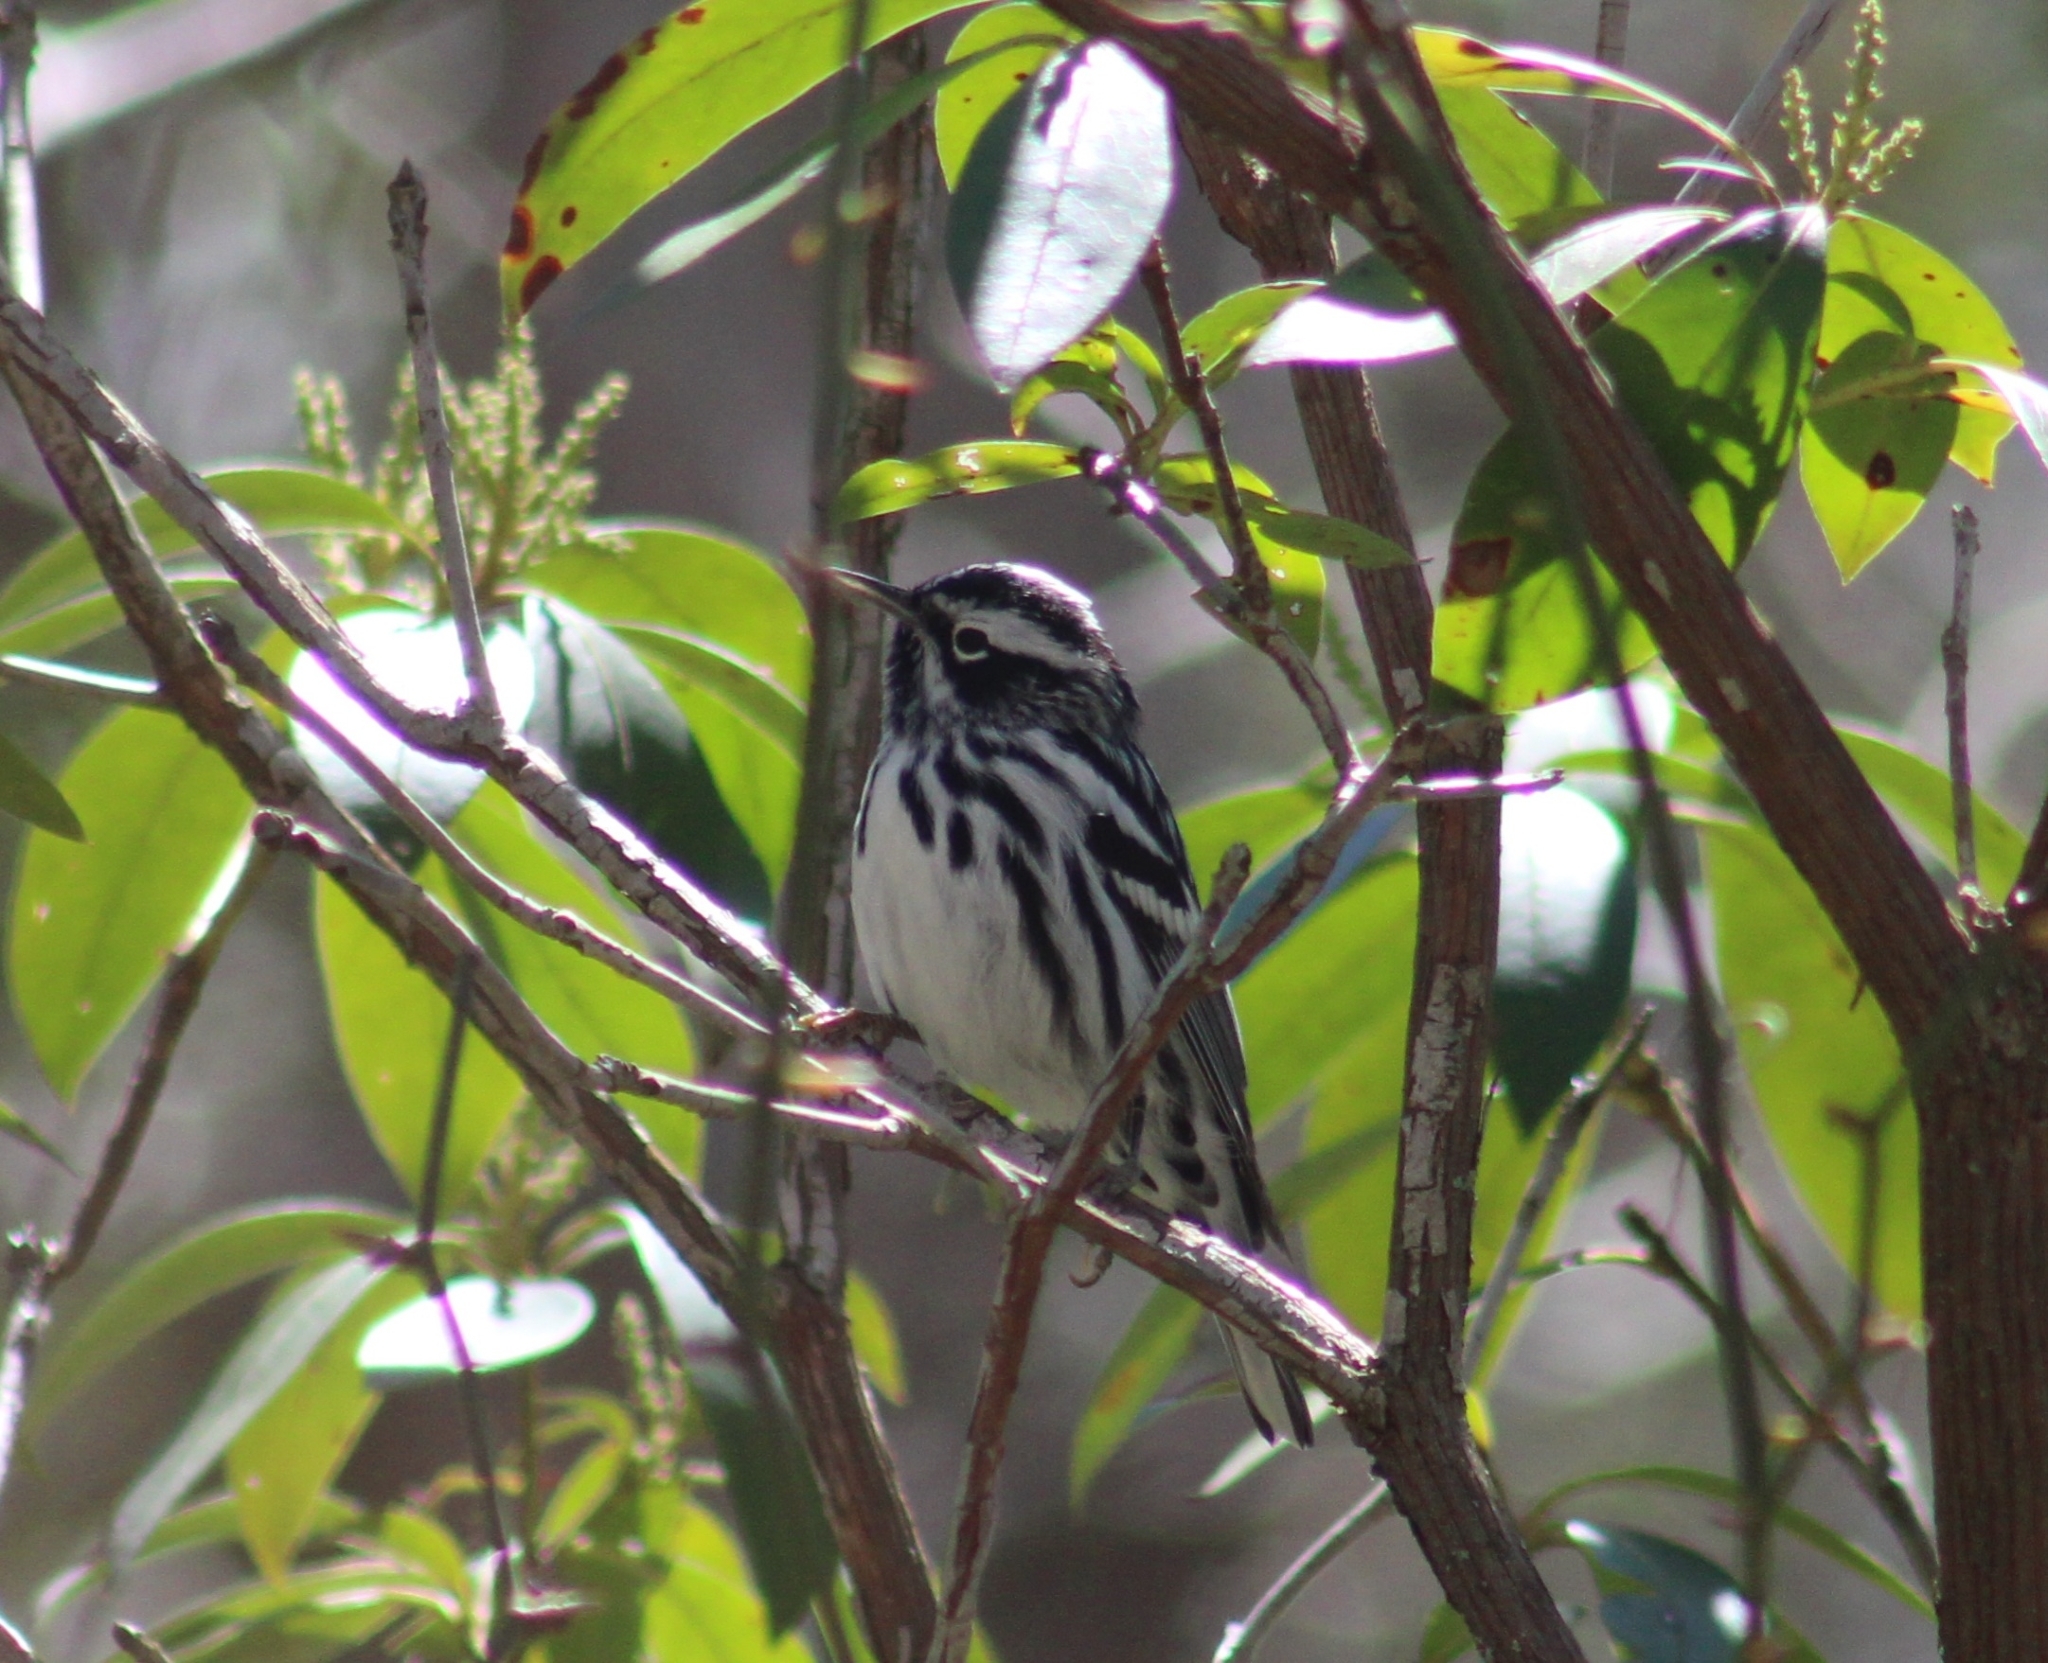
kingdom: Animalia
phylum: Chordata
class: Aves
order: Passeriformes
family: Parulidae
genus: Mniotilta
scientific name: Mniotilta varia
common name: Black-and-white warbler
